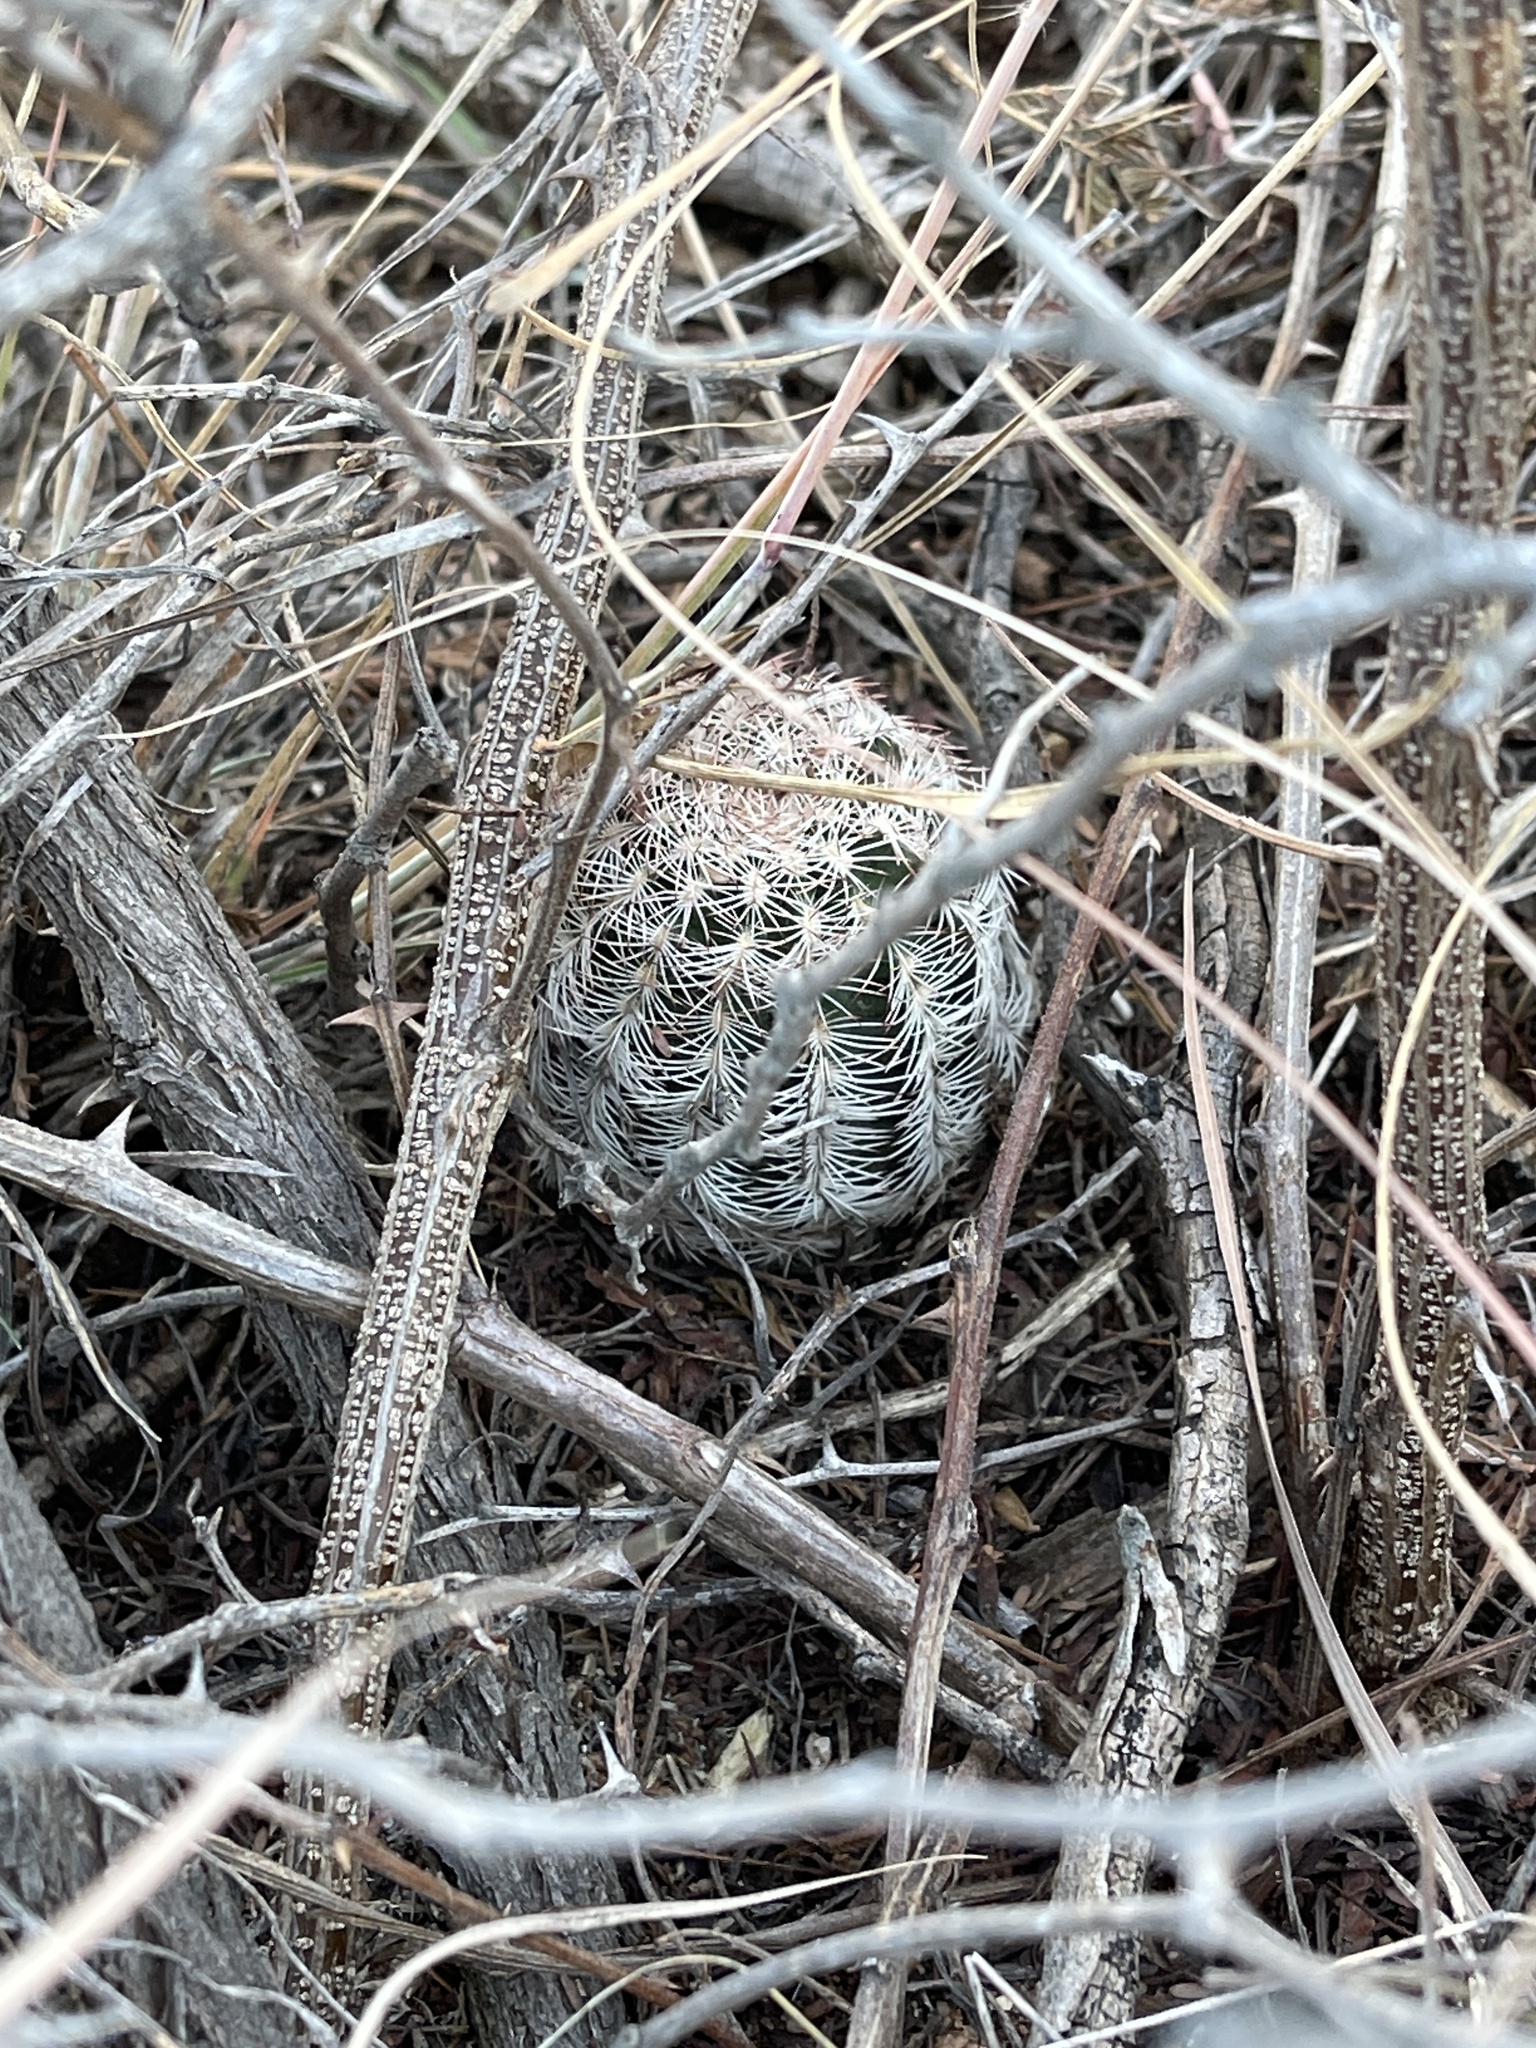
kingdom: Plantae
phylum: Tracheophyta
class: Magnoliopsida
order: Caryophyllales
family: Cactaceae
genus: Echinocereus
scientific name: Echinocereus reichenbachii
